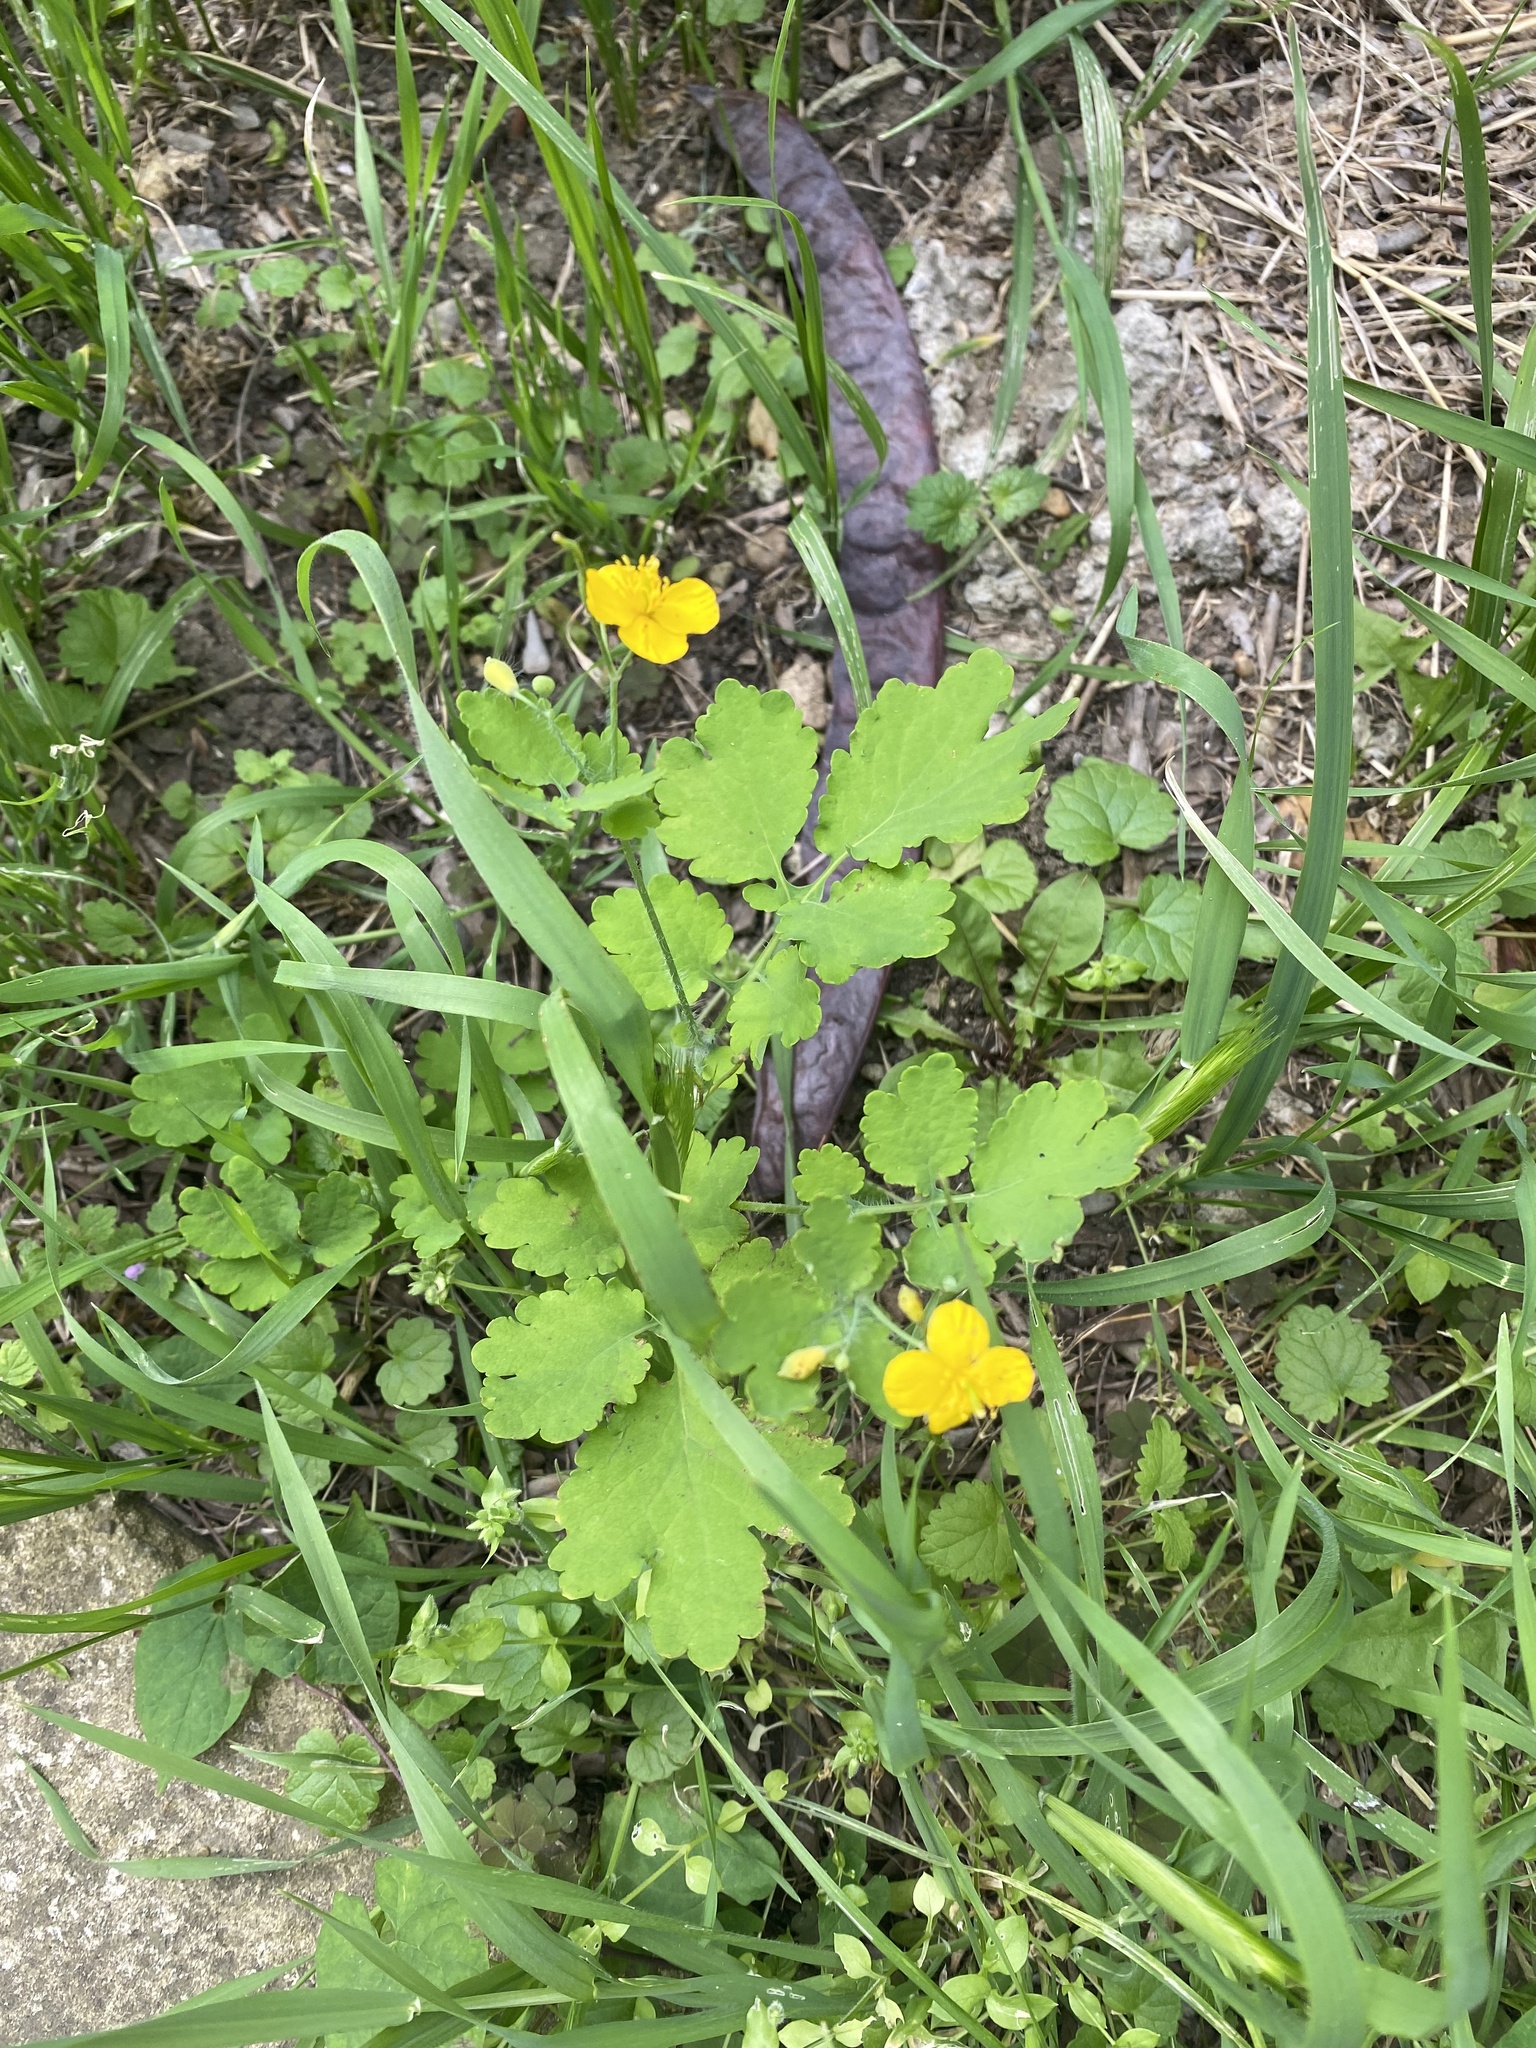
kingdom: Plantae
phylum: Tracheophyta
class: Magnoliopsida
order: Ranunculales
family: Papaveraceae
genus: Chelidonium
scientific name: Chelidonium majus
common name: Greater celandine
